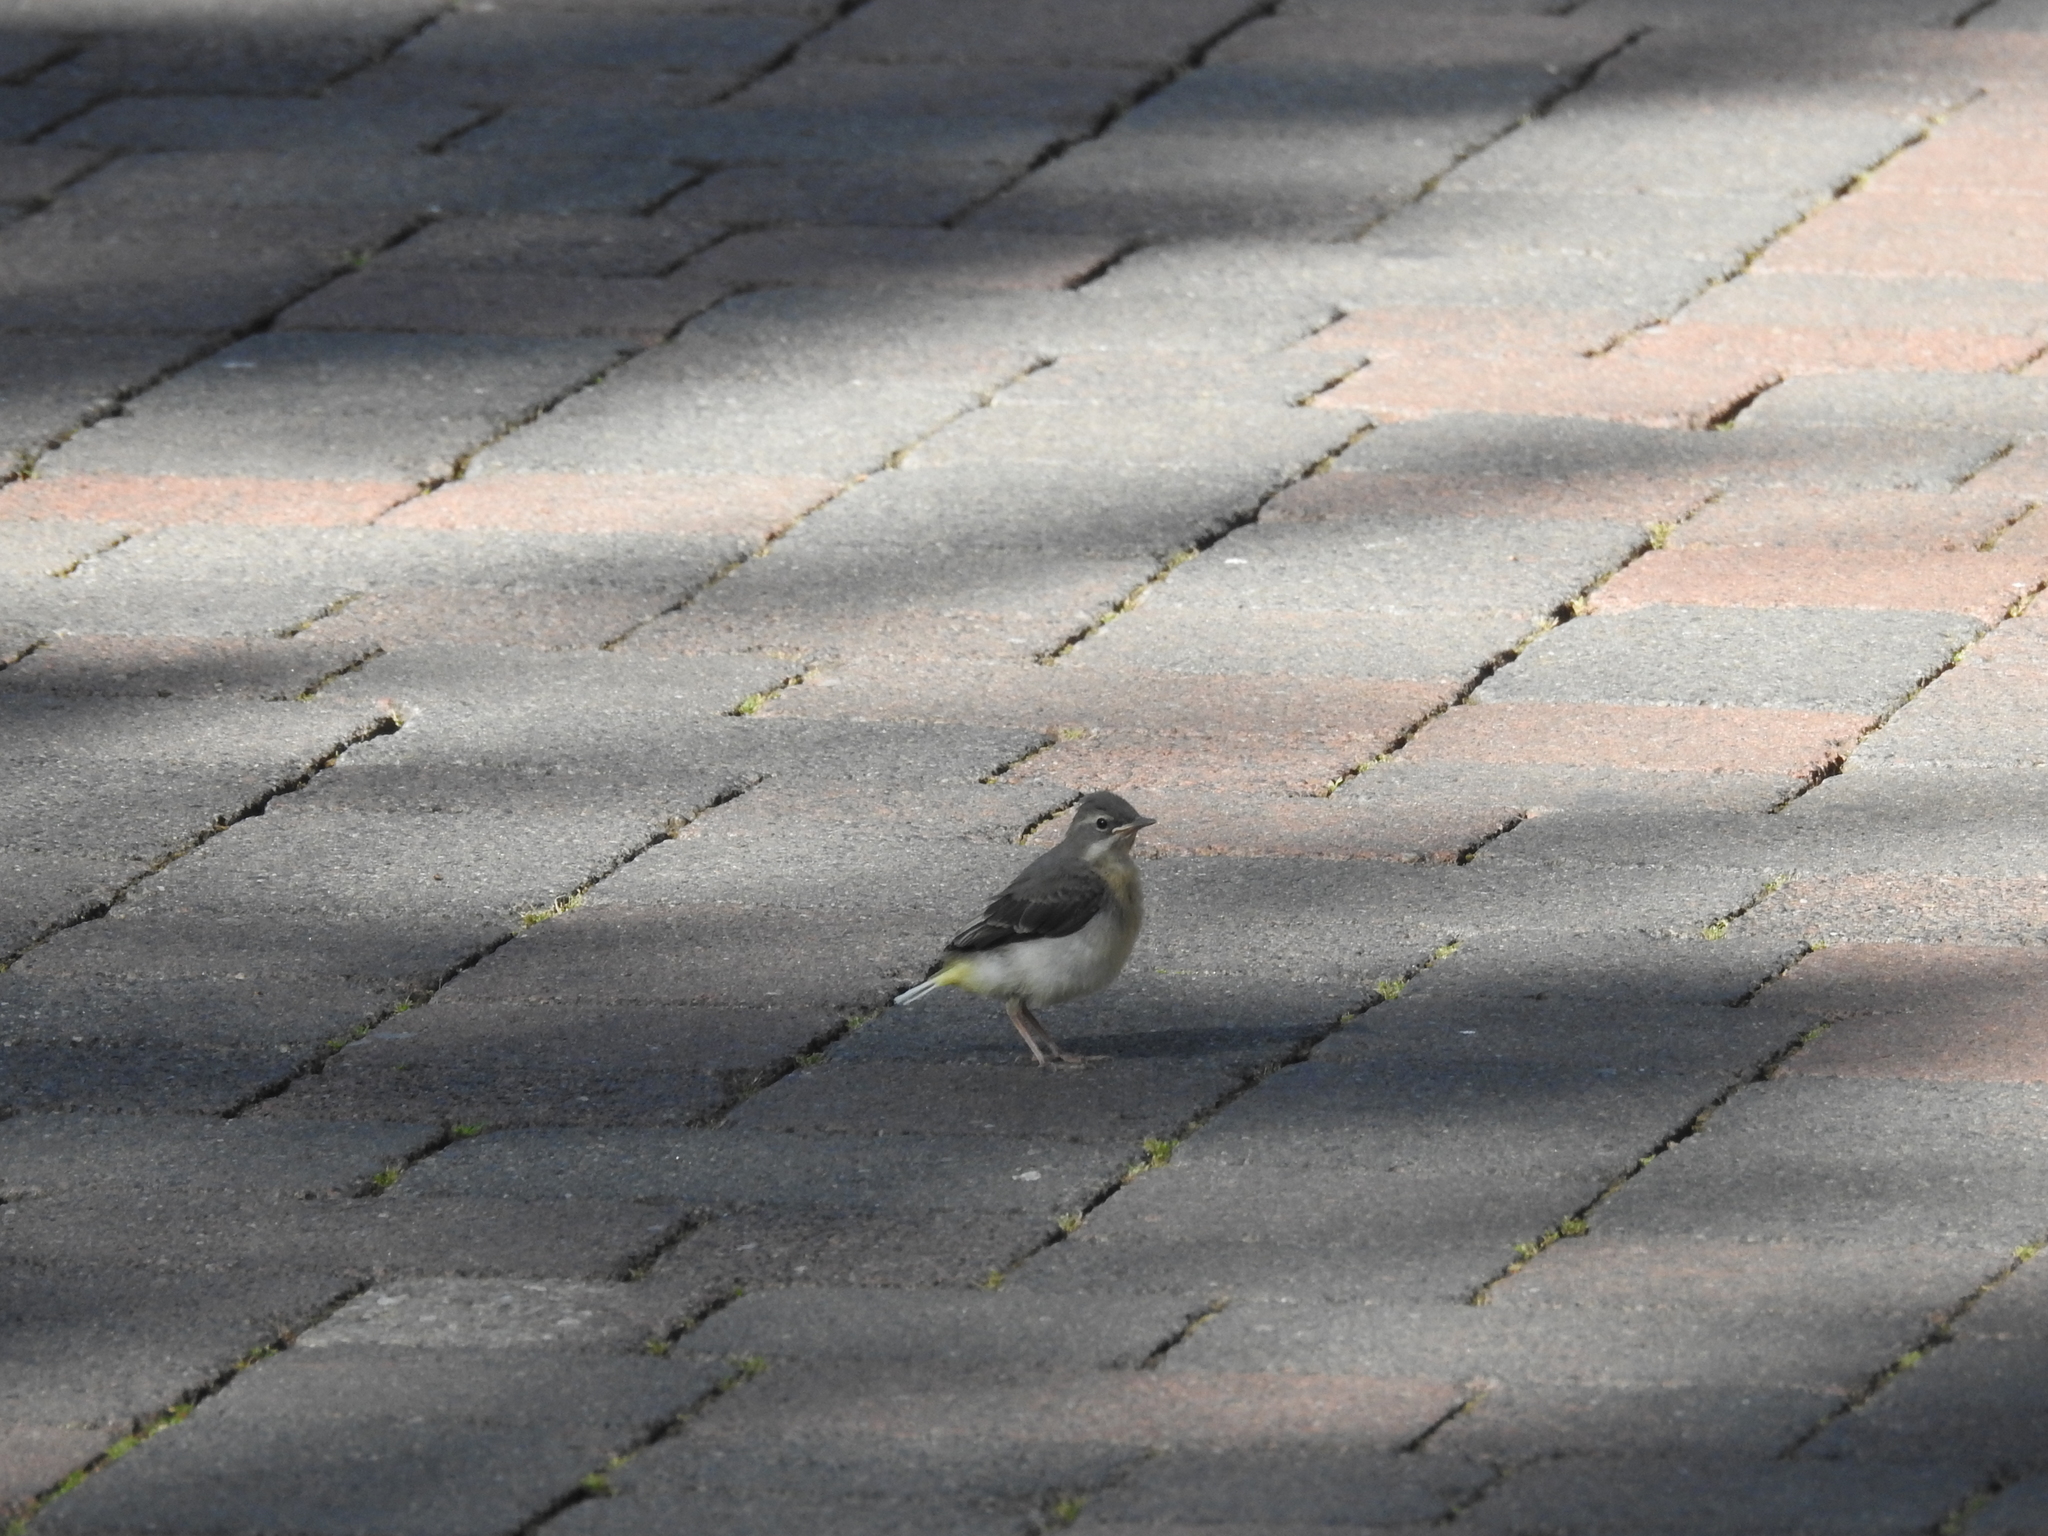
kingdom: Animalia
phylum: Chordata
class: Aves
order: Passeriformes
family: Motacillidae
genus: Motacilla
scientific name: Motacilla cinerea
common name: Grey wagtail
